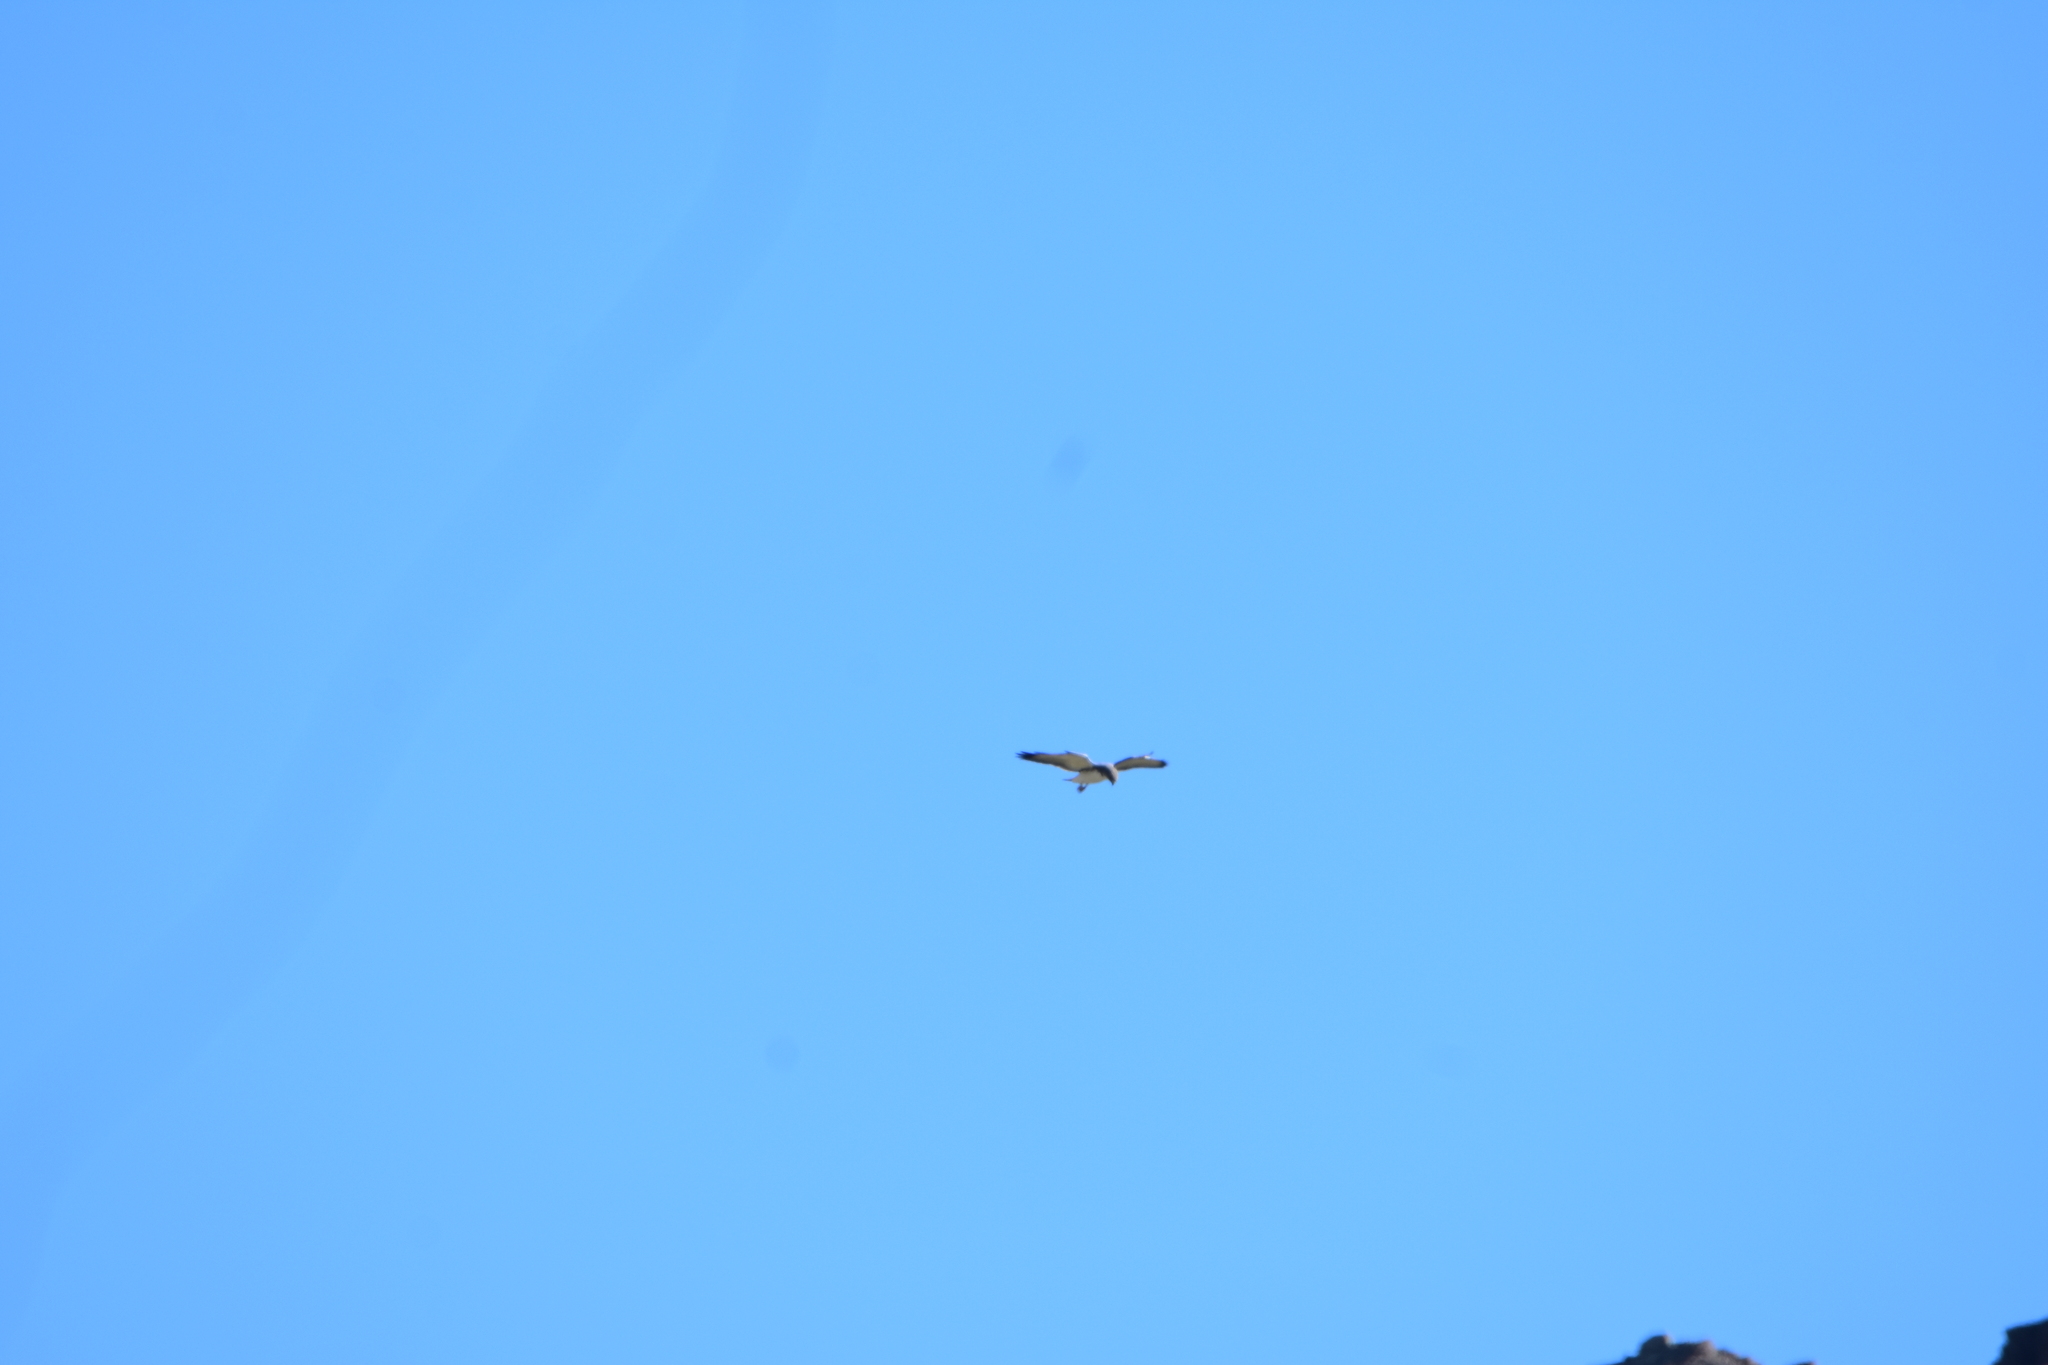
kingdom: Animalia
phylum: Chordata
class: Aves
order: Accipitriformes
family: Accipitridae
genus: Buteo
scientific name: Buteo polyosoma
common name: Variable hawk
